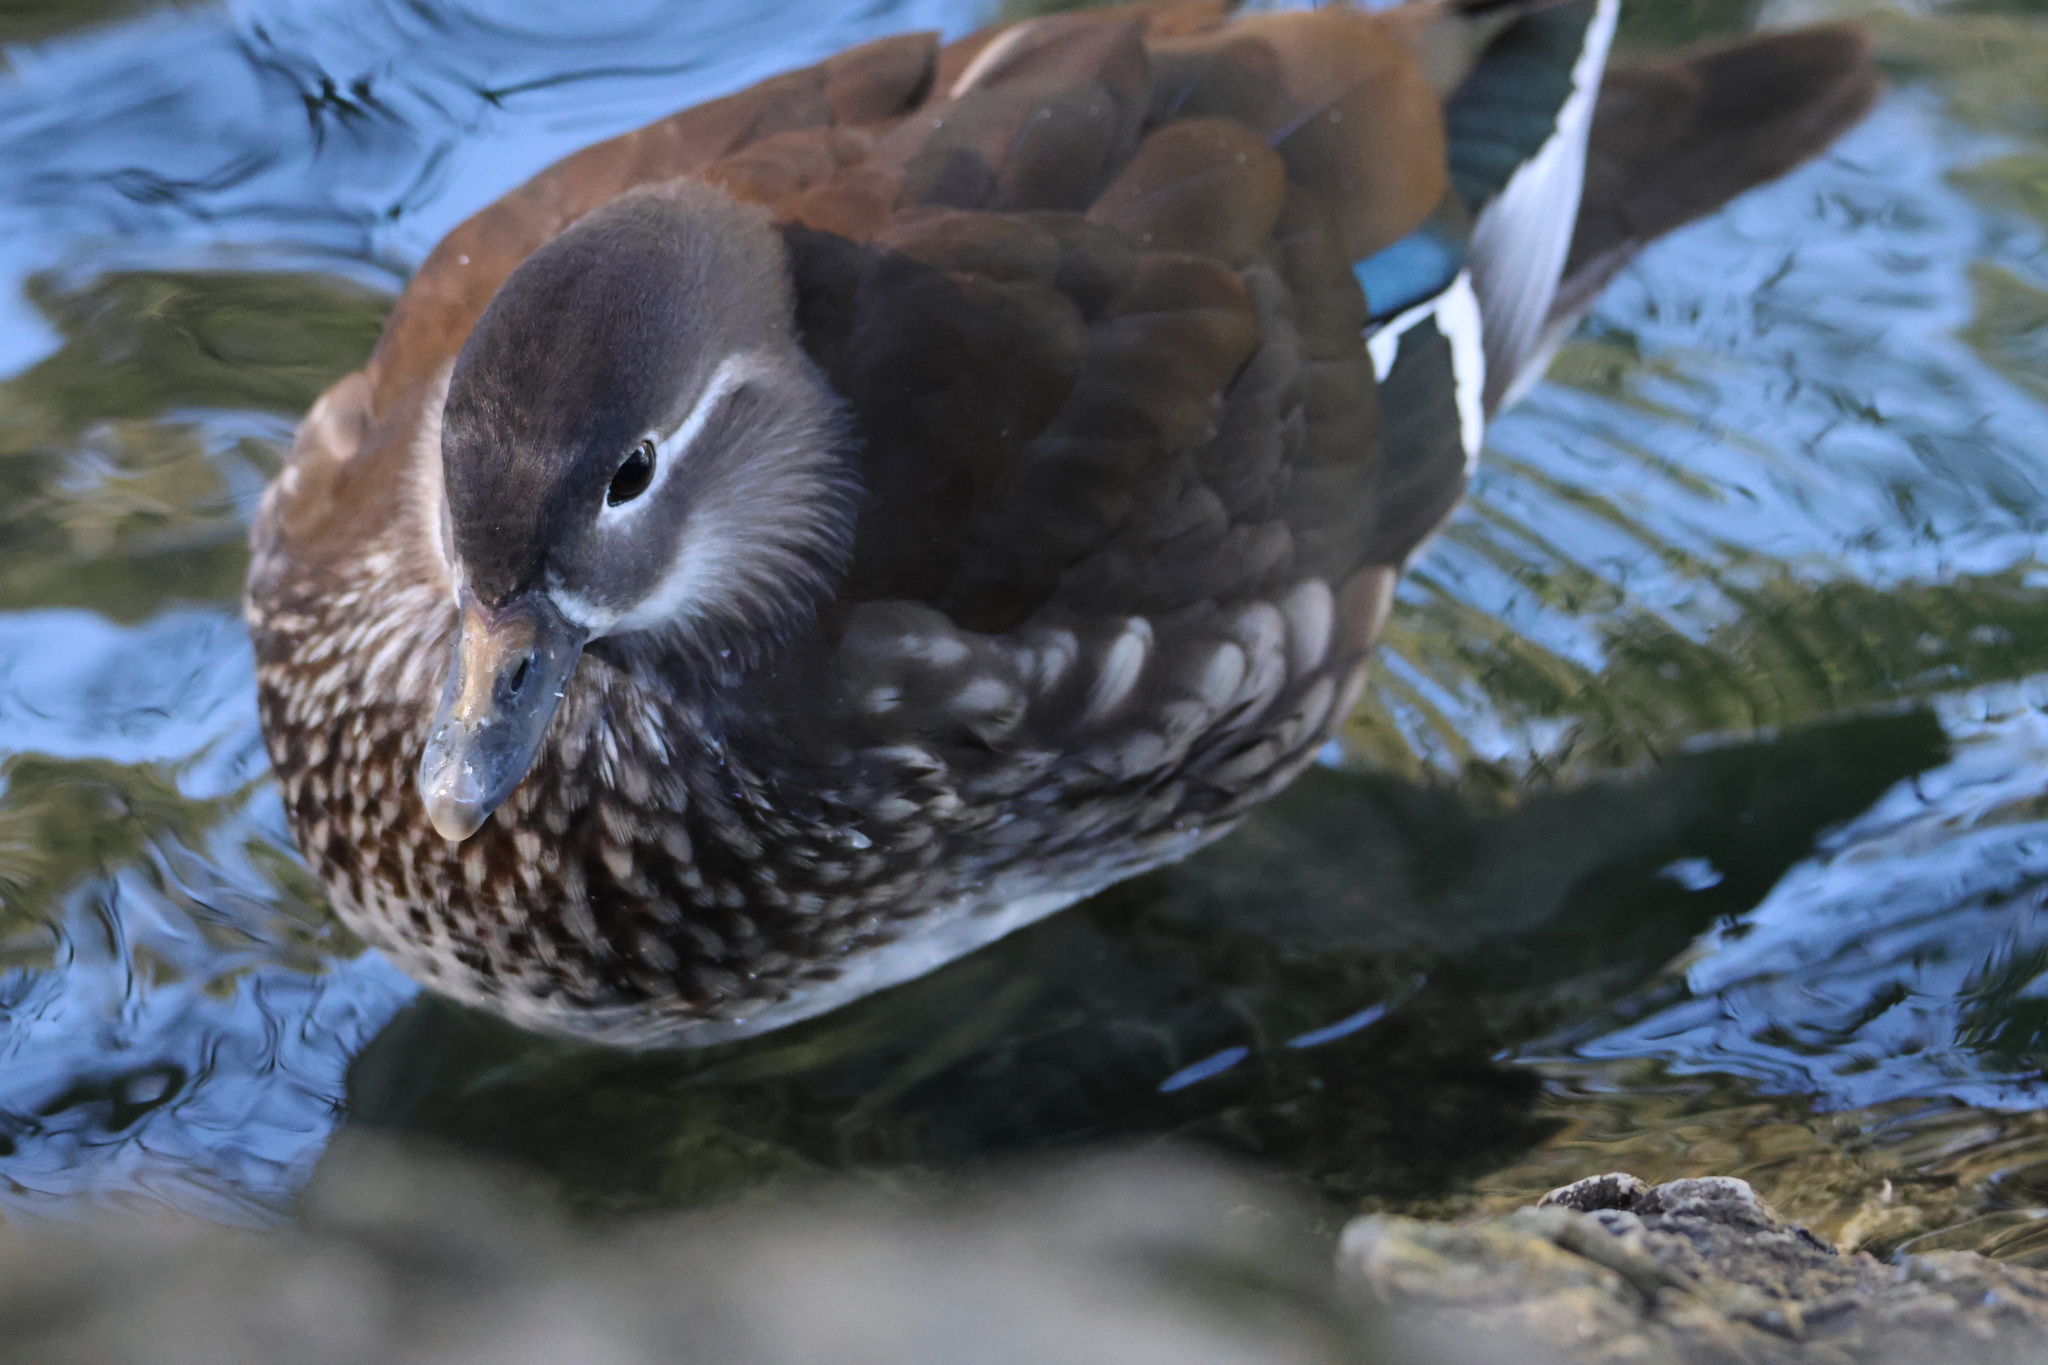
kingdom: Animalia
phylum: Chordata
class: Aves
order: Anseriformes
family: Anatidae
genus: Aix
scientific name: Aix galericulata
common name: Mandarin duck
